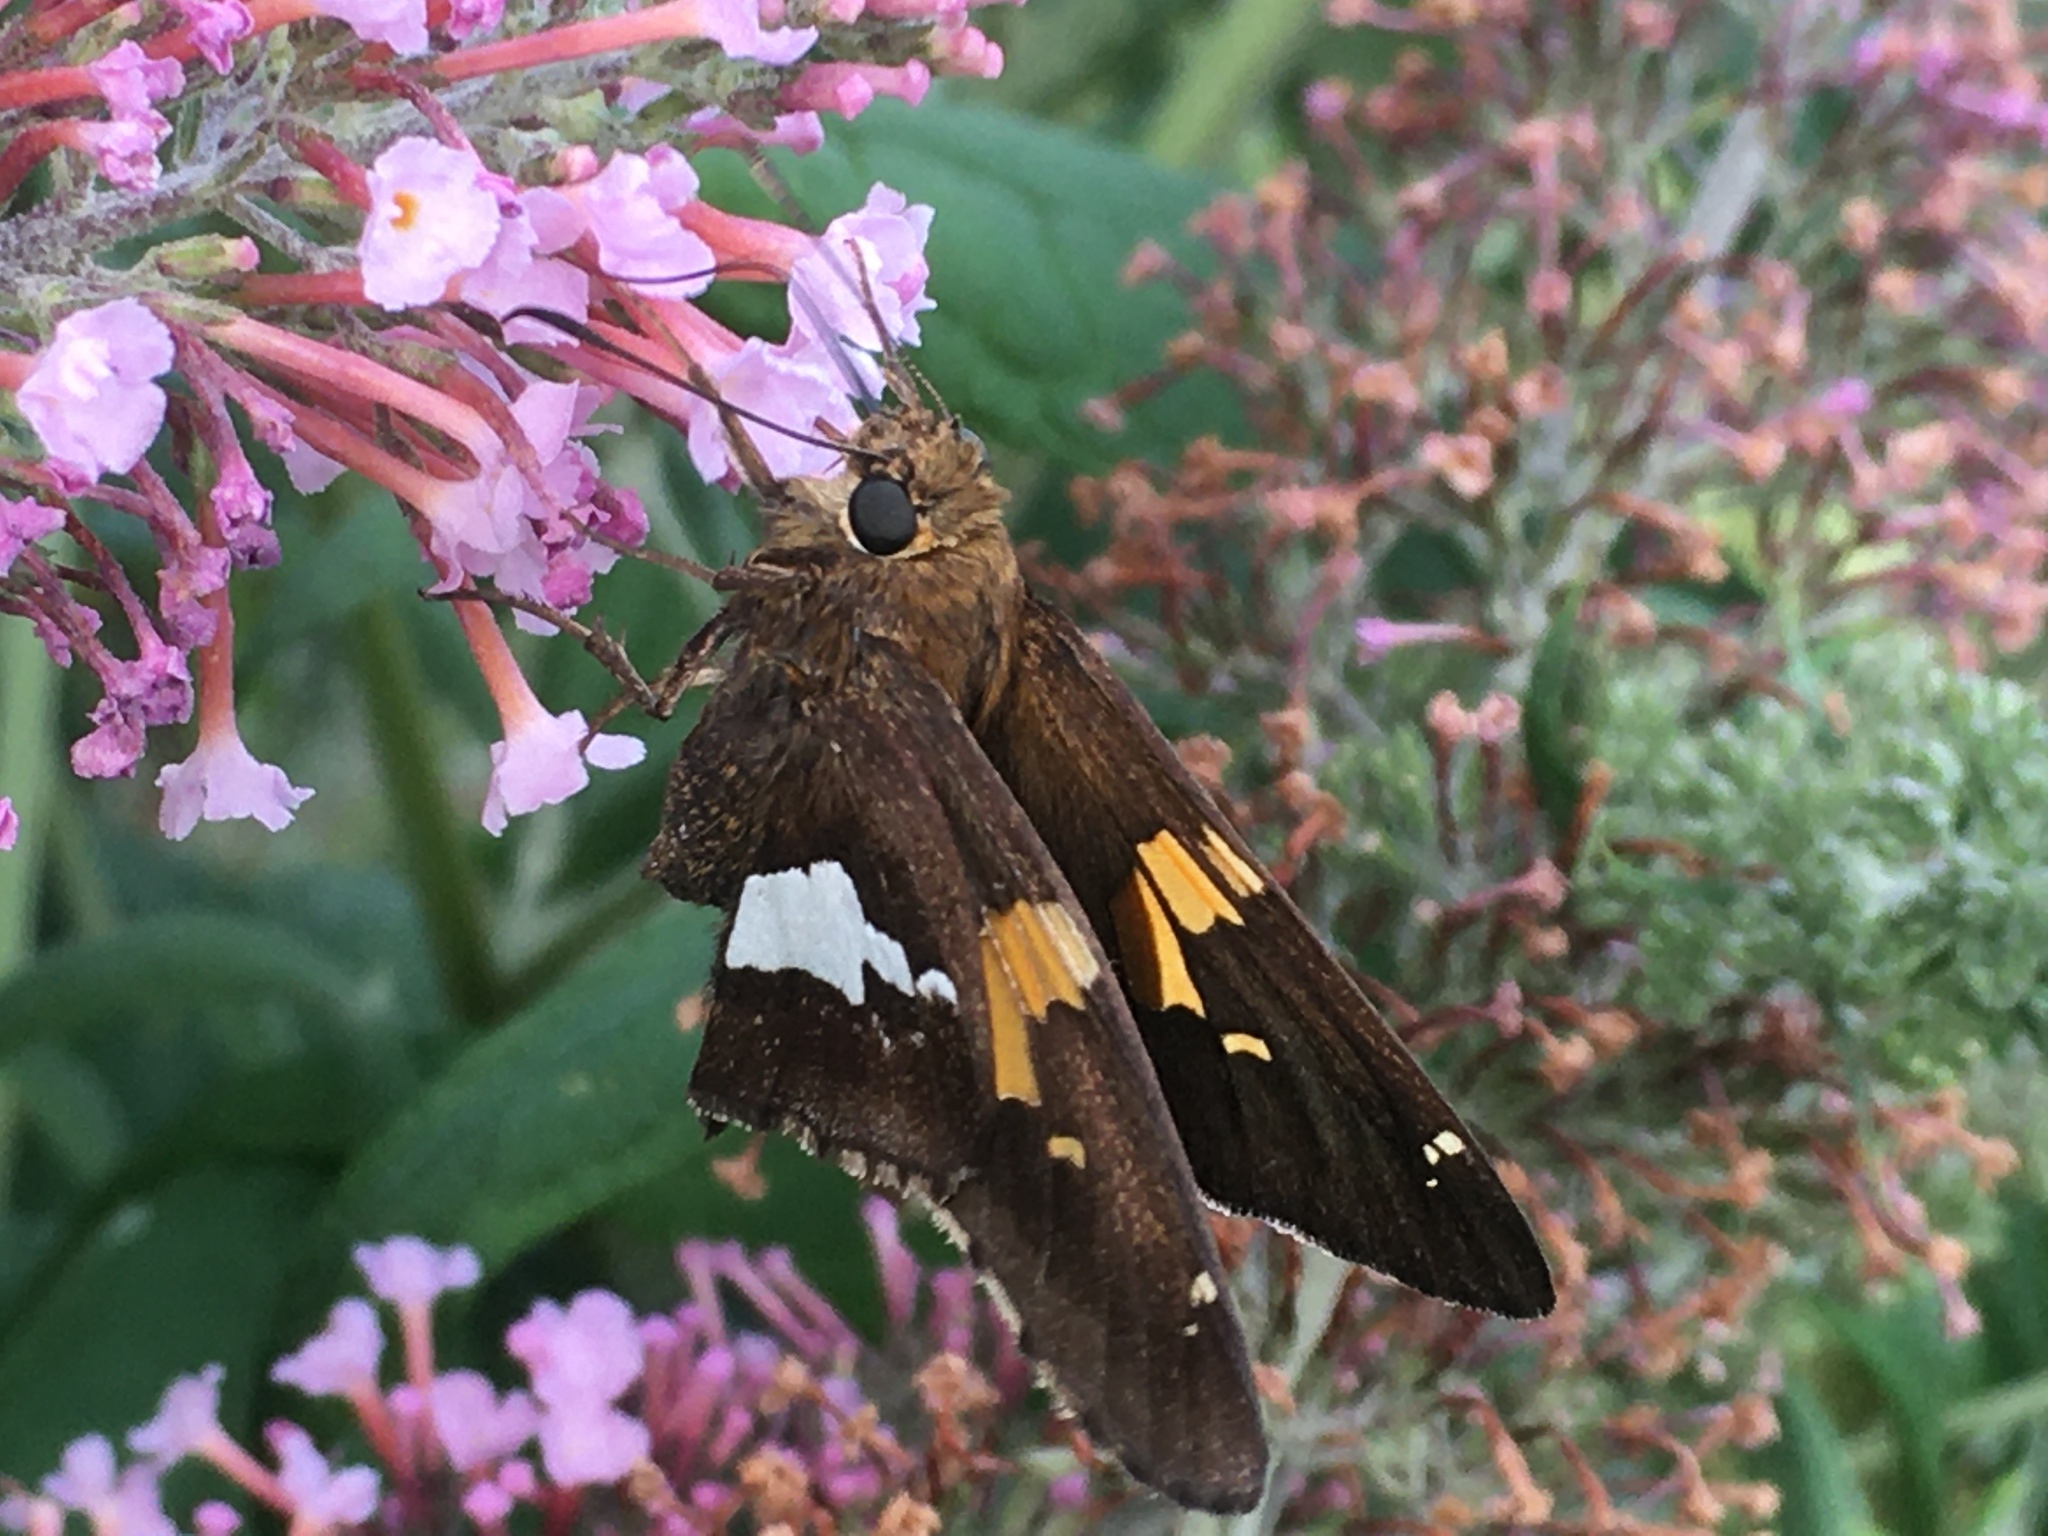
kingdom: Animalia
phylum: Arthropoda
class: Insecta
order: Lepidoptera
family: Hesperiidae
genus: Epargyreus
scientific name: Epargyreus clarus
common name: Silver-spotted skipper
